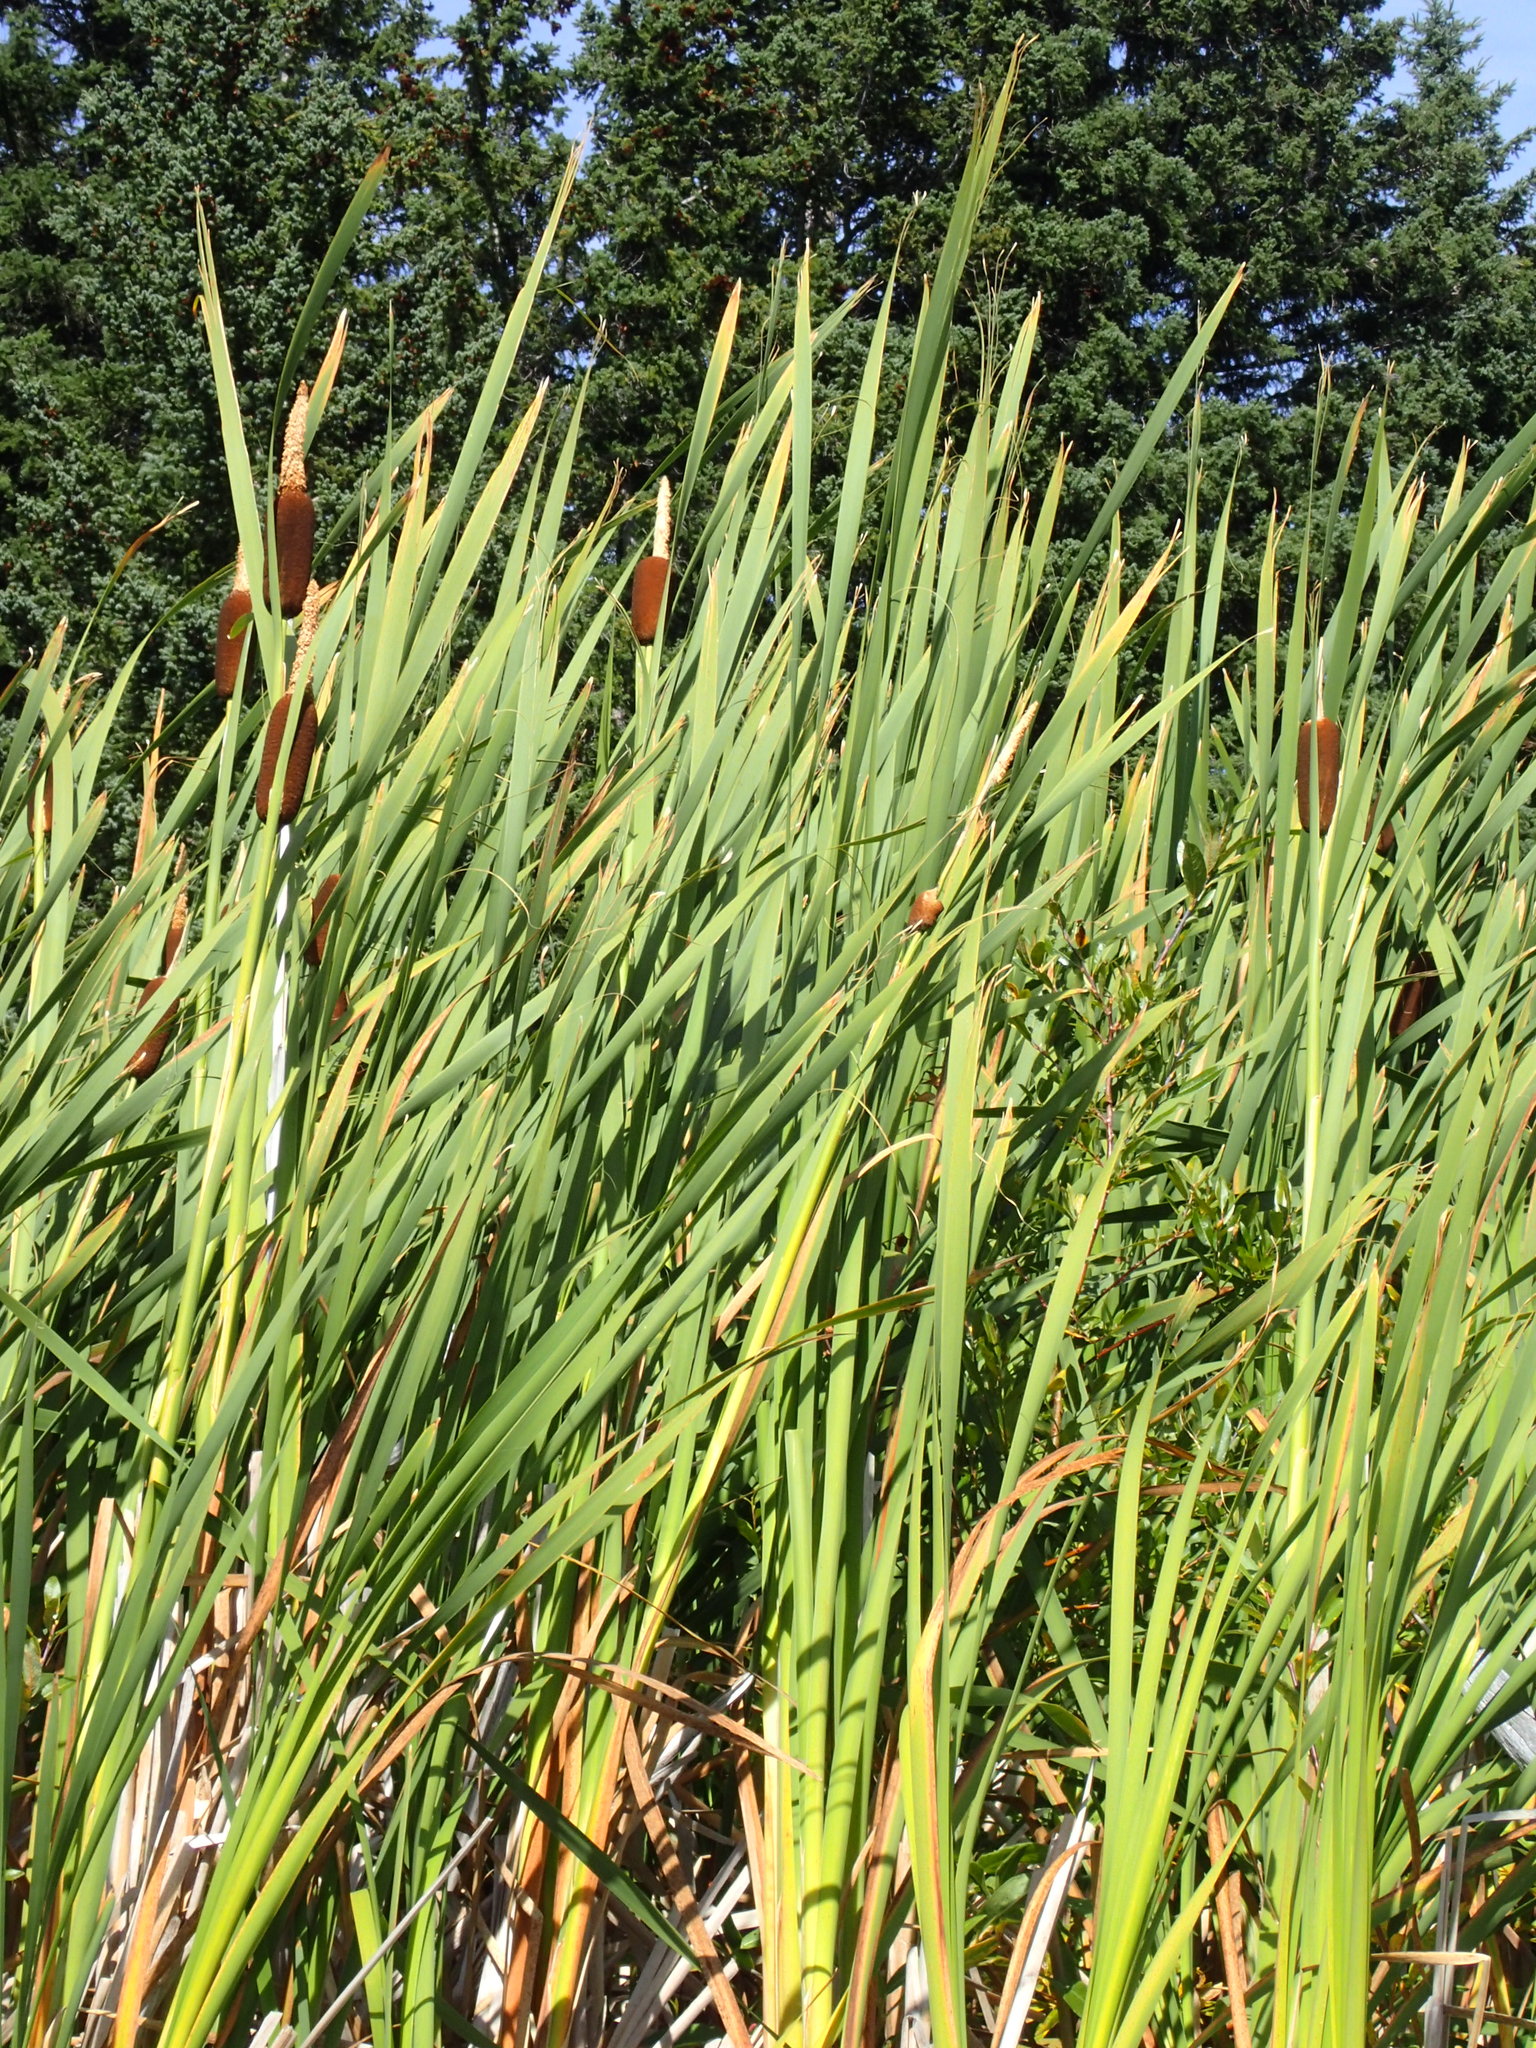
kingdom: Plantae
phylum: Tracheophyta
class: Liliopsida
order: Poales
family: Typhaceae
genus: Typha
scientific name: Typha latifolia
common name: Broadleaf cattail
